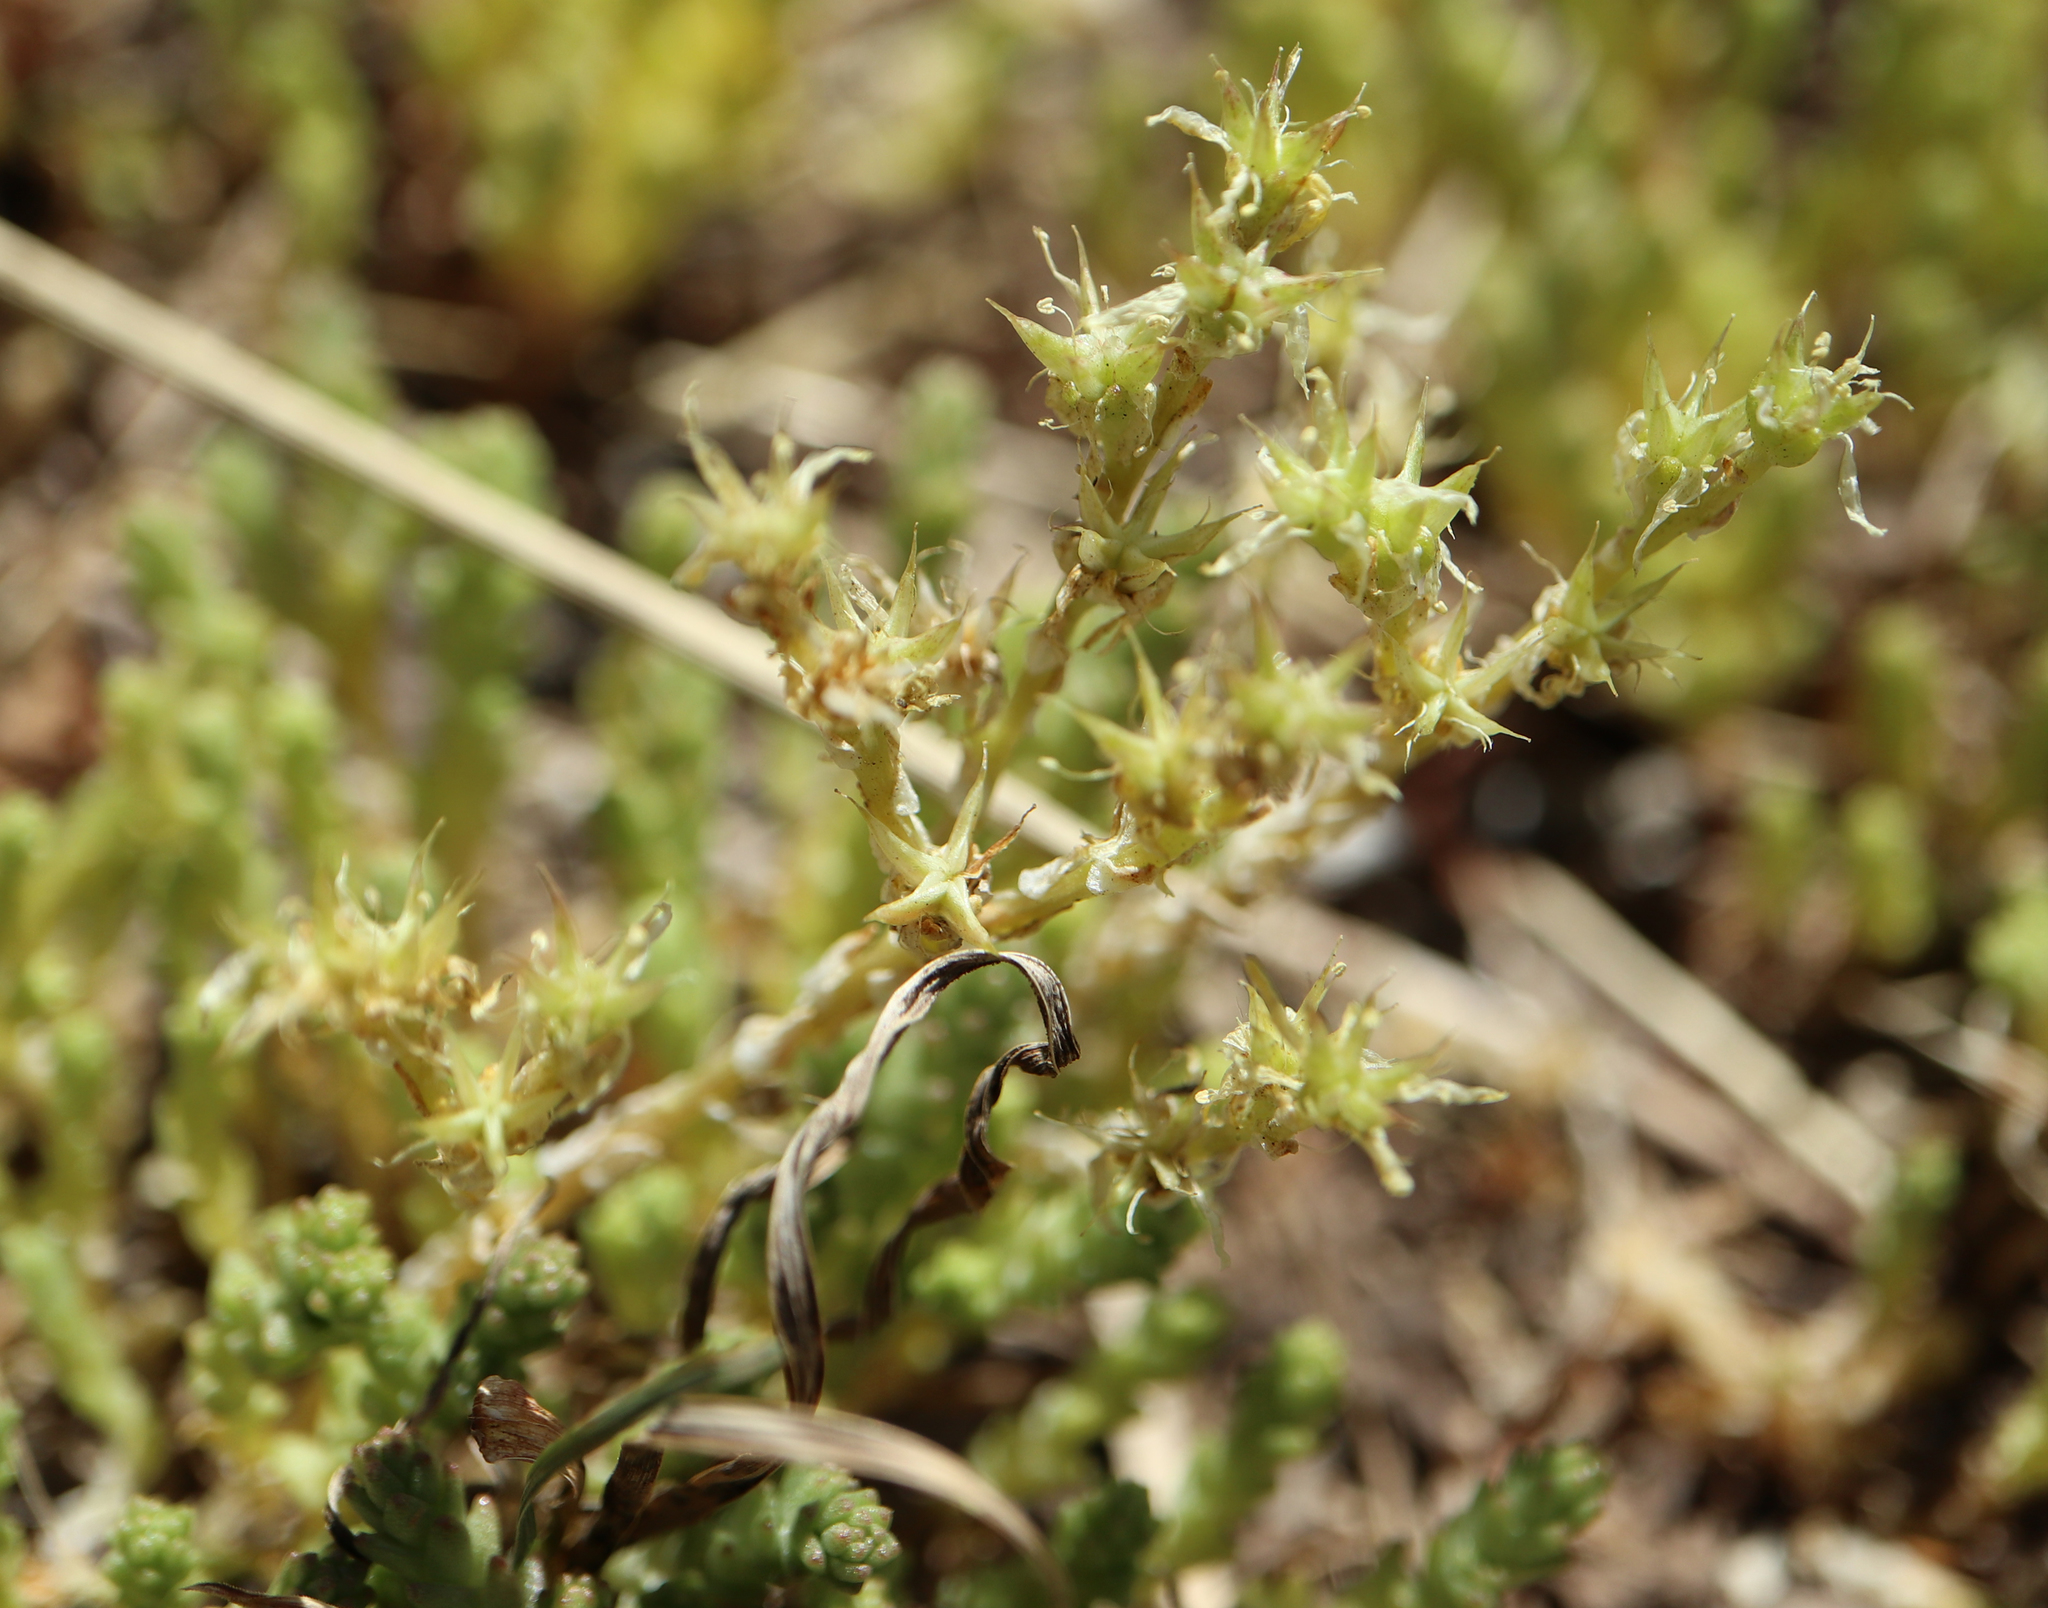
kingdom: Plantae
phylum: Tracheophyta
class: Magnoliopsida
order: Saxifragales
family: Crassulaceae
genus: Sedum
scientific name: Sedum acre
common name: Biting stonecrop
